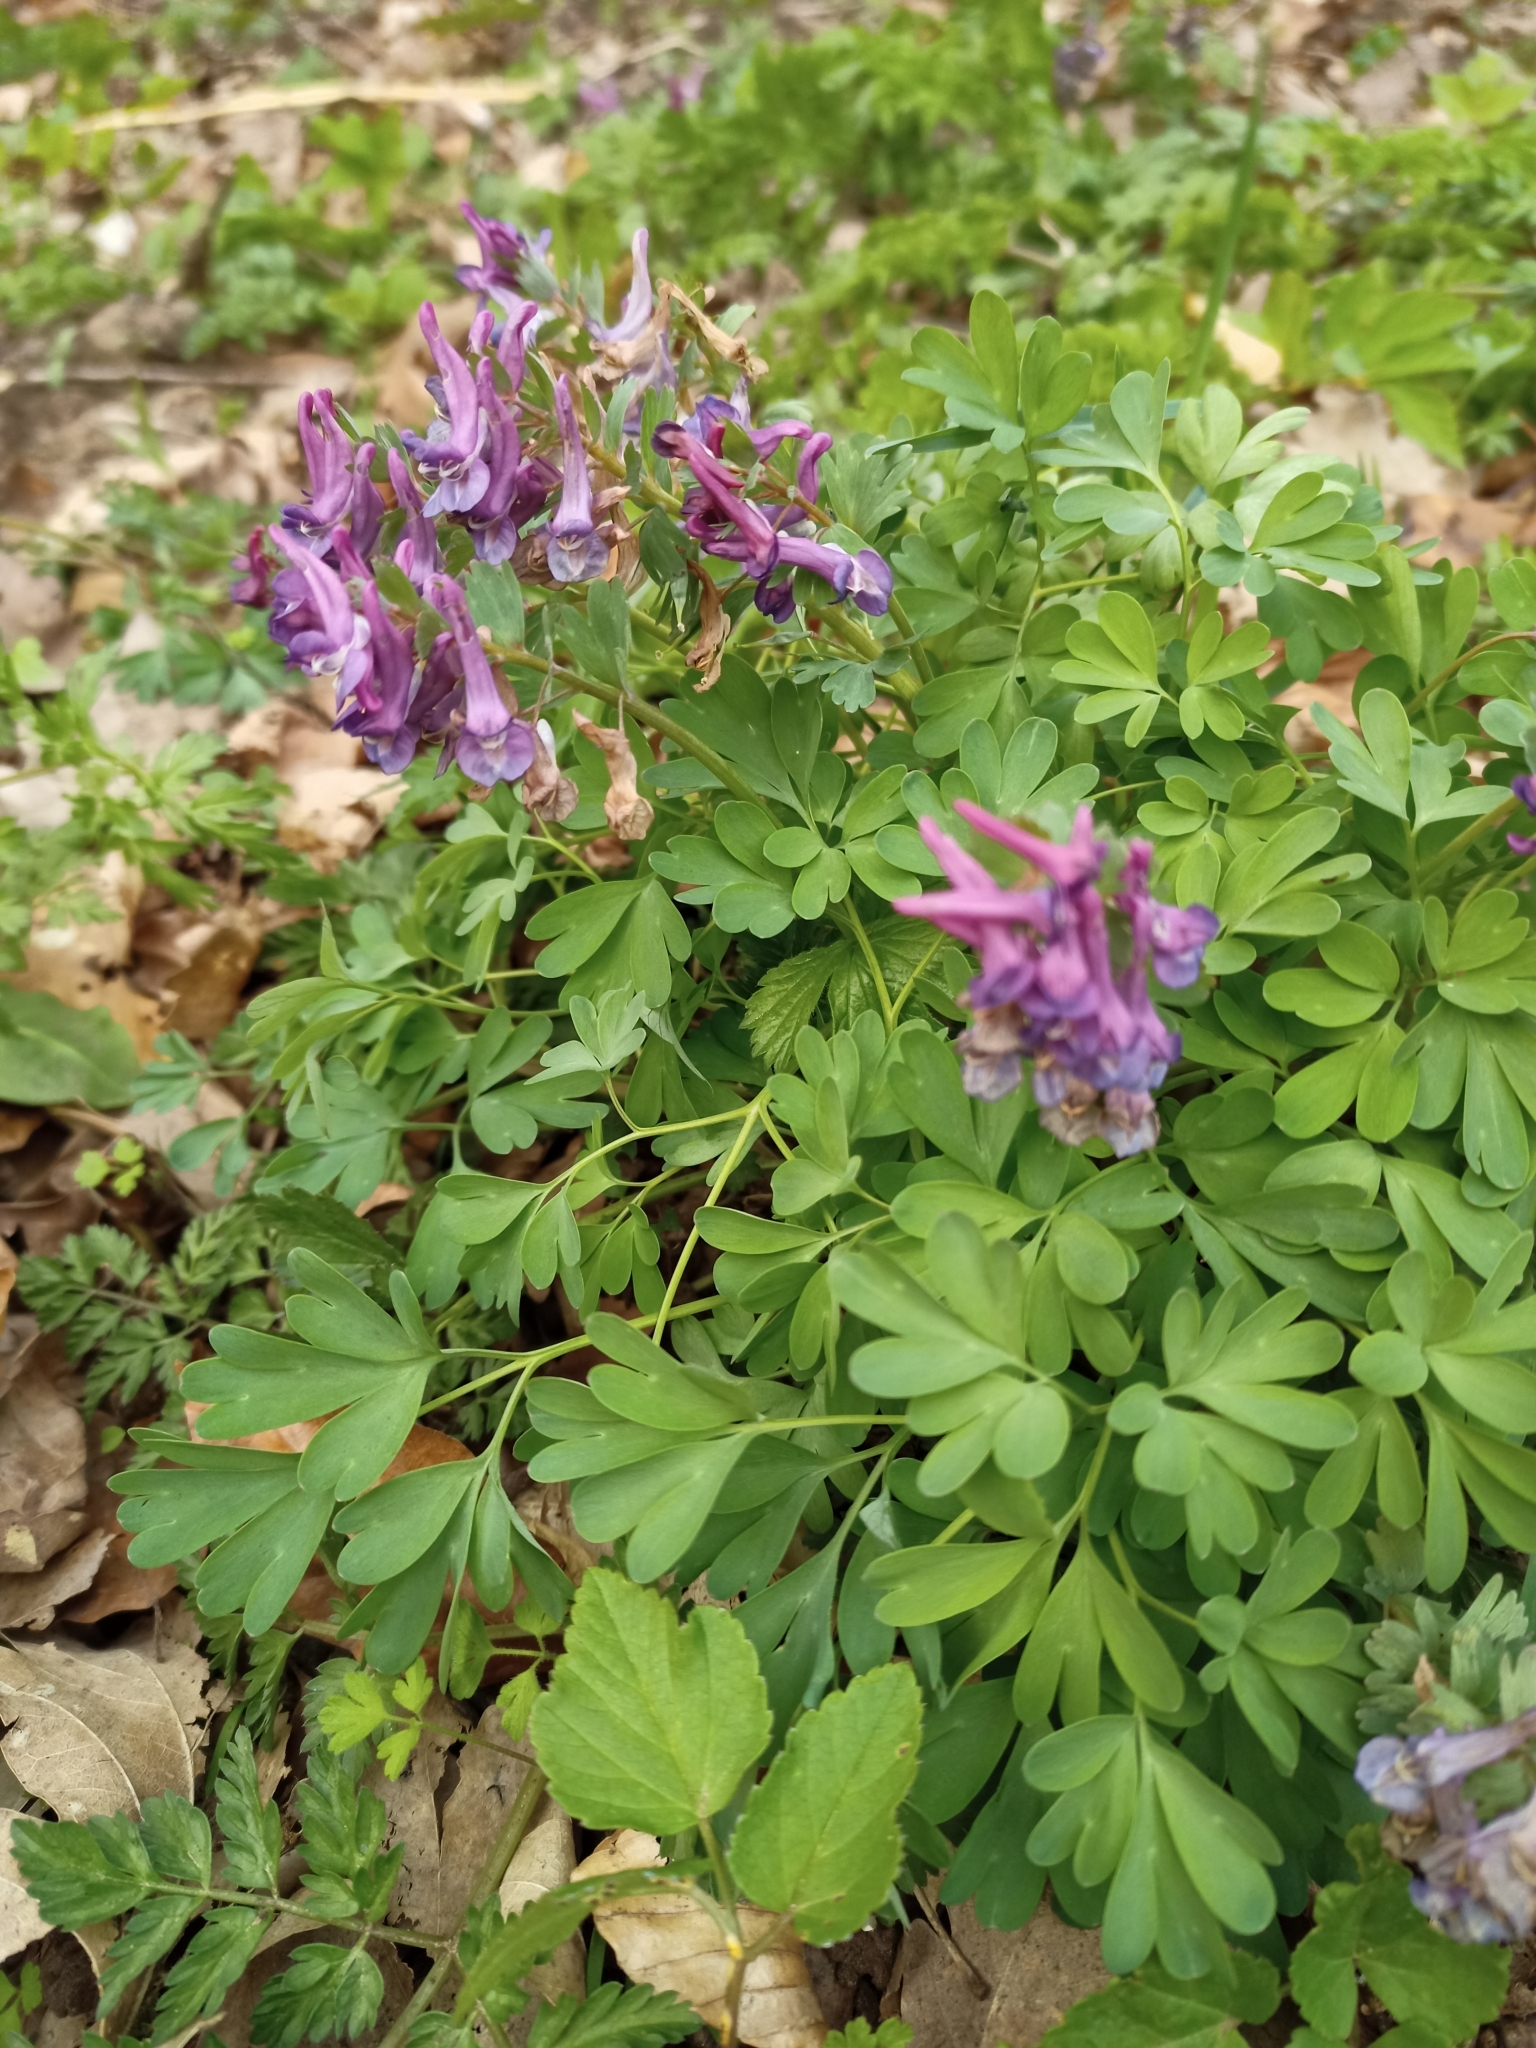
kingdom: Plantae
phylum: Tracheophyta
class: Magnoliopsida
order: Ranunculales
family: Papaveraceae
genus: Corydalis
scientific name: Corydalis solida
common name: Bird-in-a-bush
